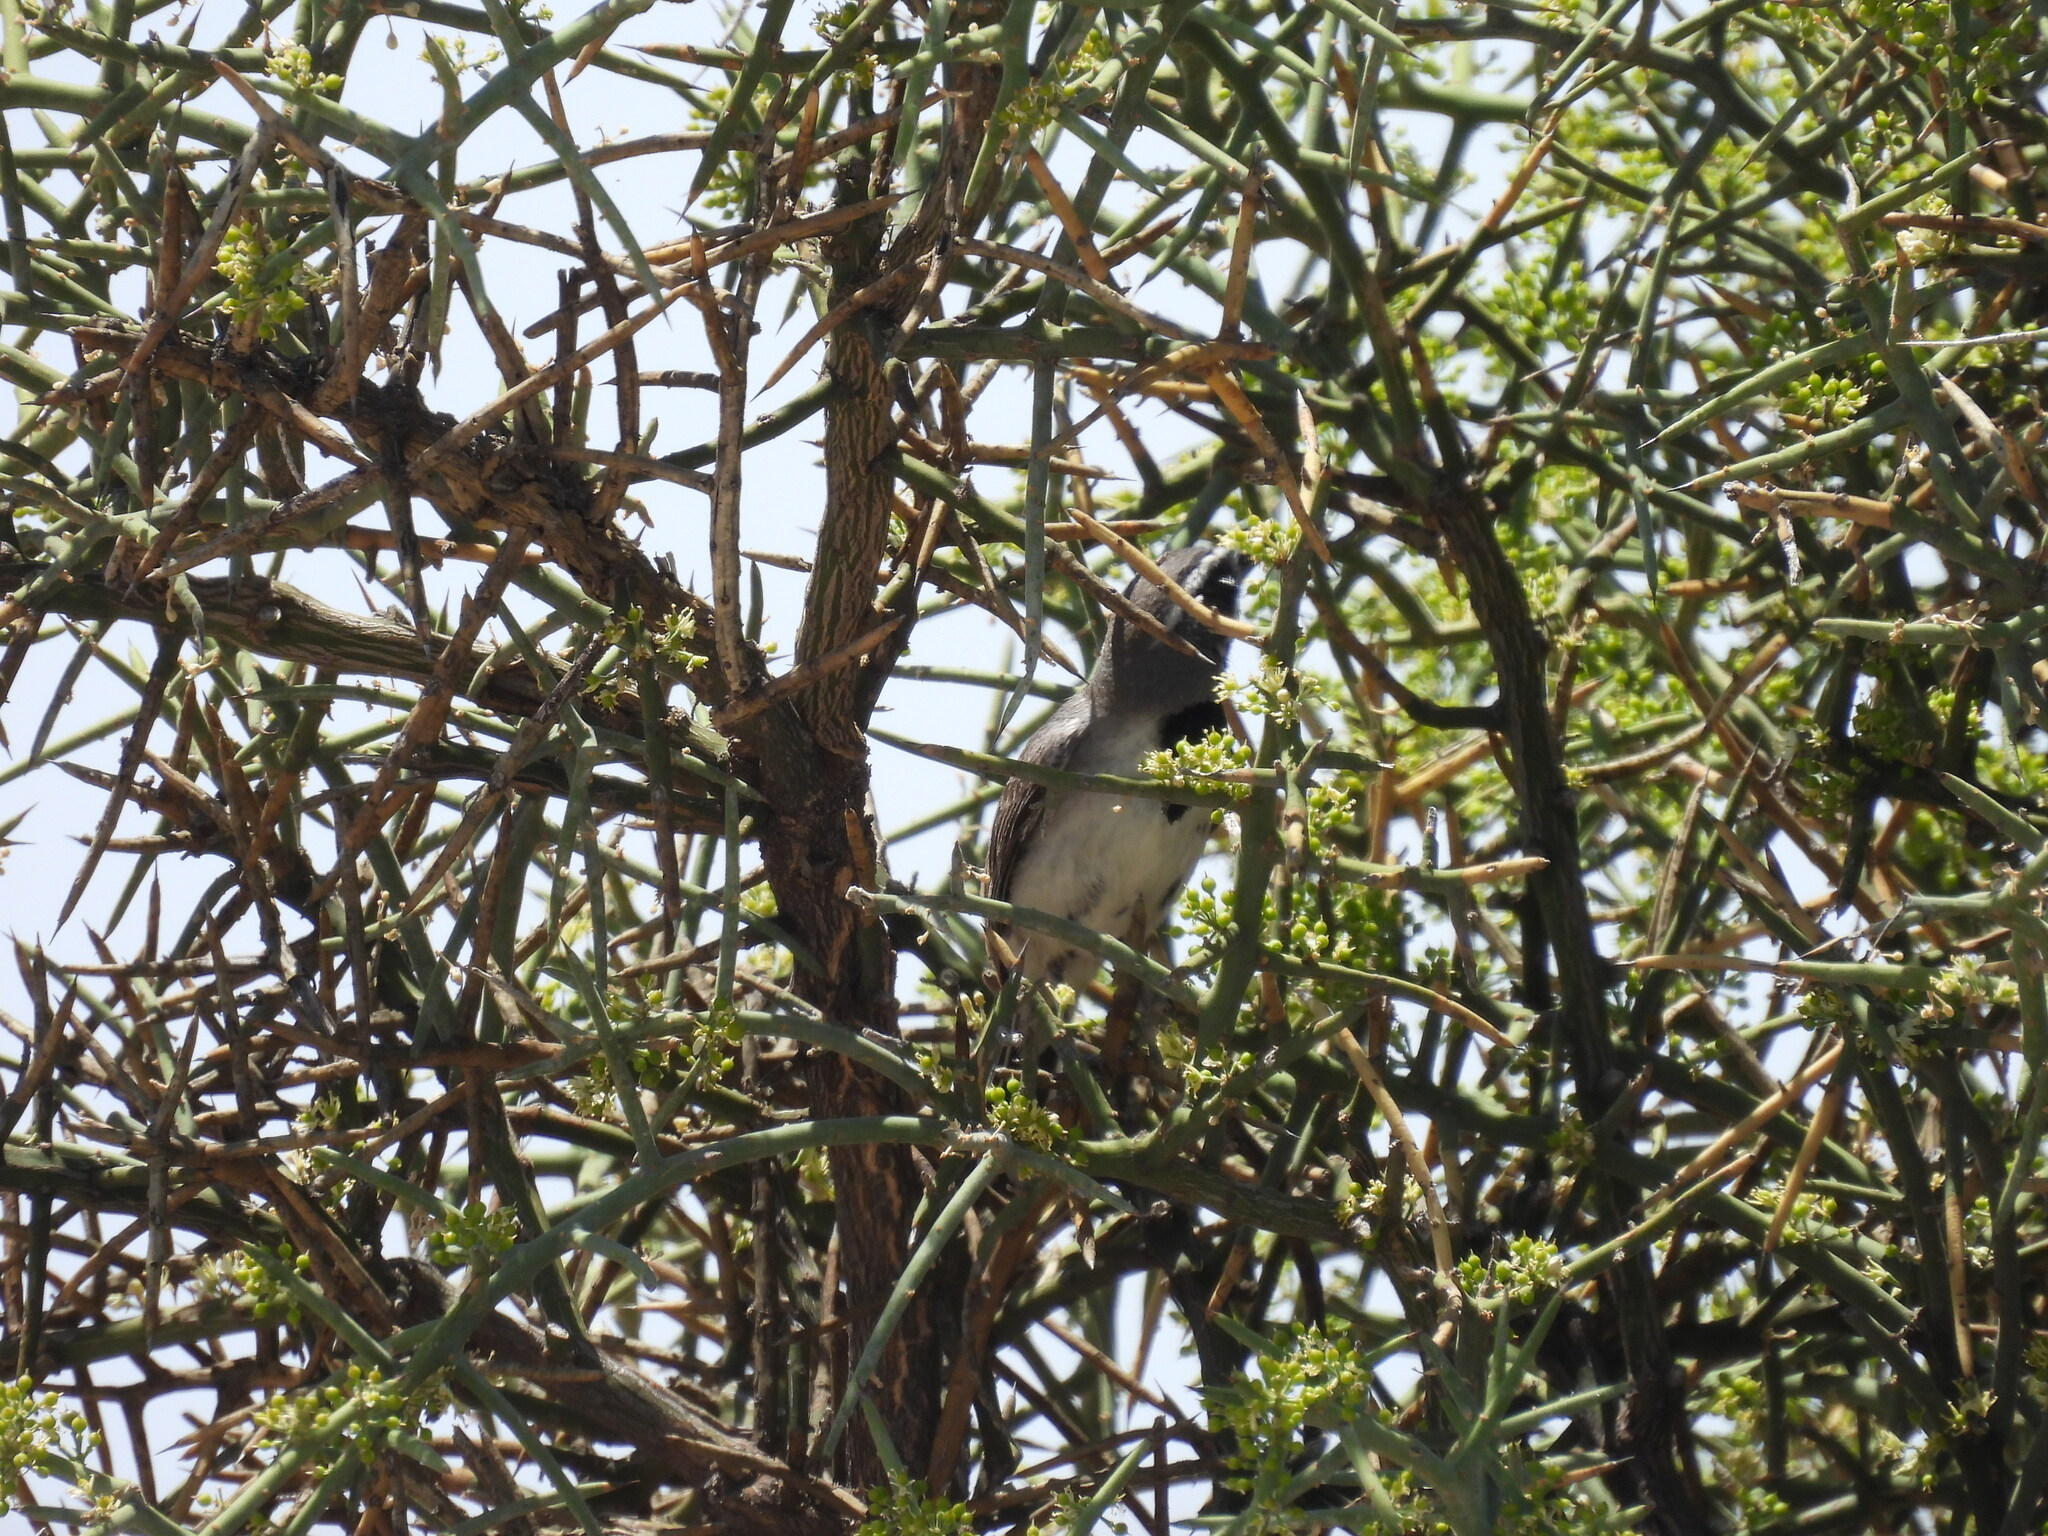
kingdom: Animalia
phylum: Chordata
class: Aves
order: Passeriformes
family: Passerellidae
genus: Amphispiza
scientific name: Amphispiza bilineata
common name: Black-throated sparrow
